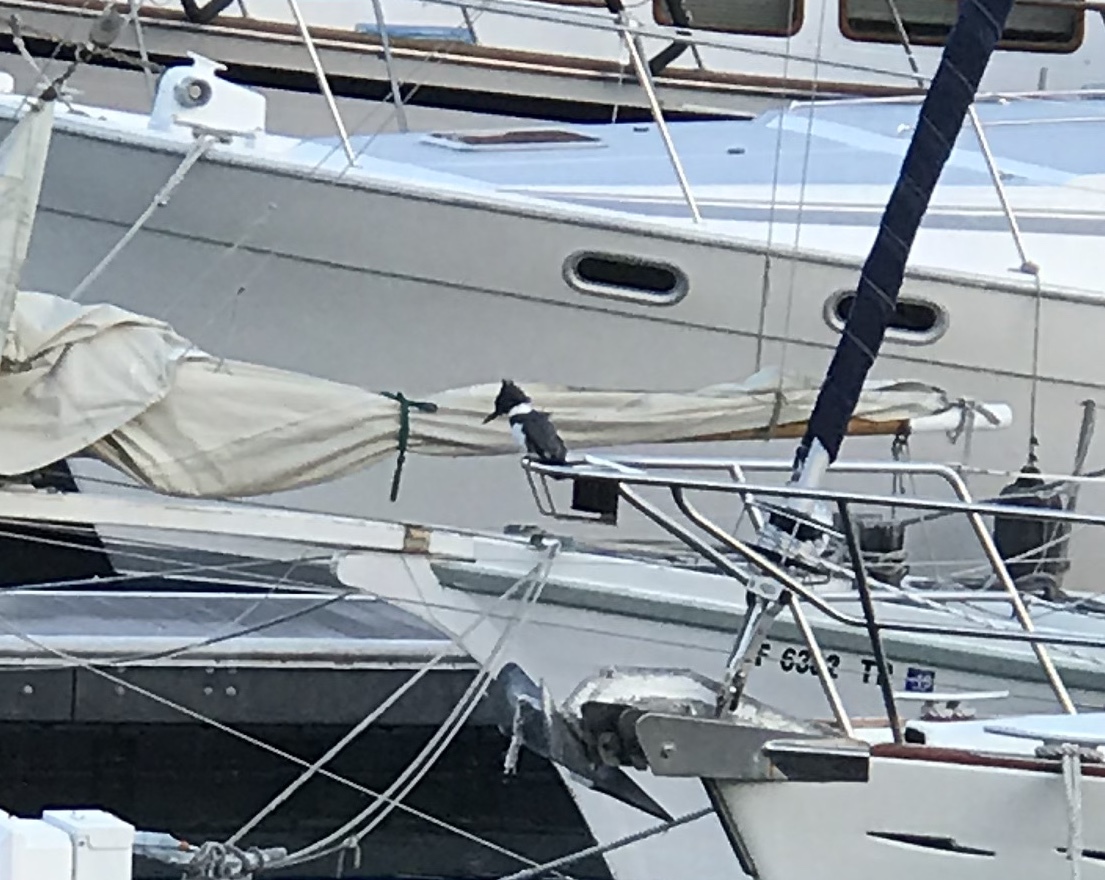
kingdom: Animalia
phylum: Chordata
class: Aves
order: Coraciiformes
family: Alcedinidae
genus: Megaceryle
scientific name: Megaceryle alcyon
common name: Belted kingfisher
